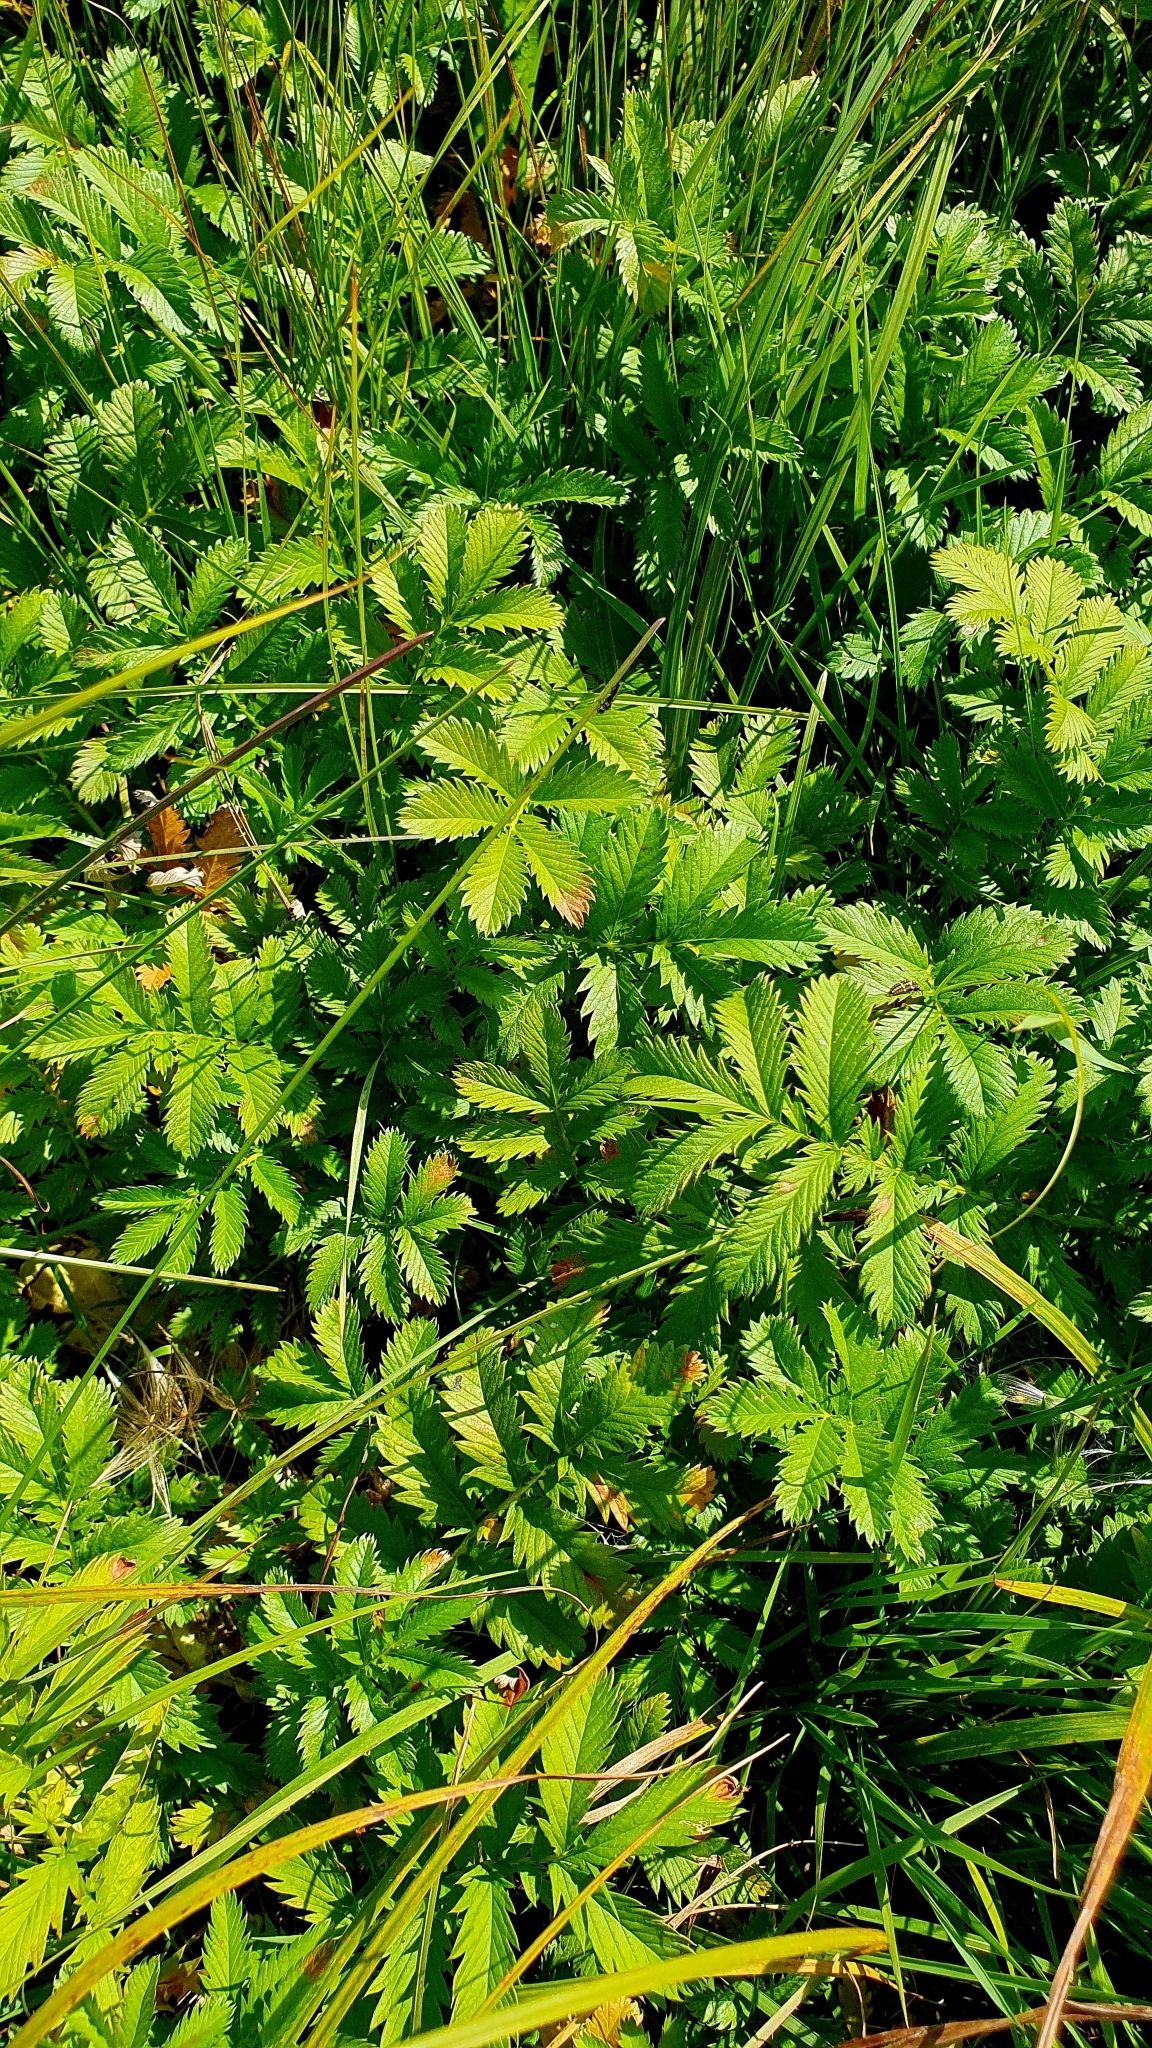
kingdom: Plantae
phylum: Tracheophyta
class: Magnoliopsida
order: Rosales
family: Rosaceae
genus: Argentina
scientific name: Argentina anserina
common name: Common silverweed
